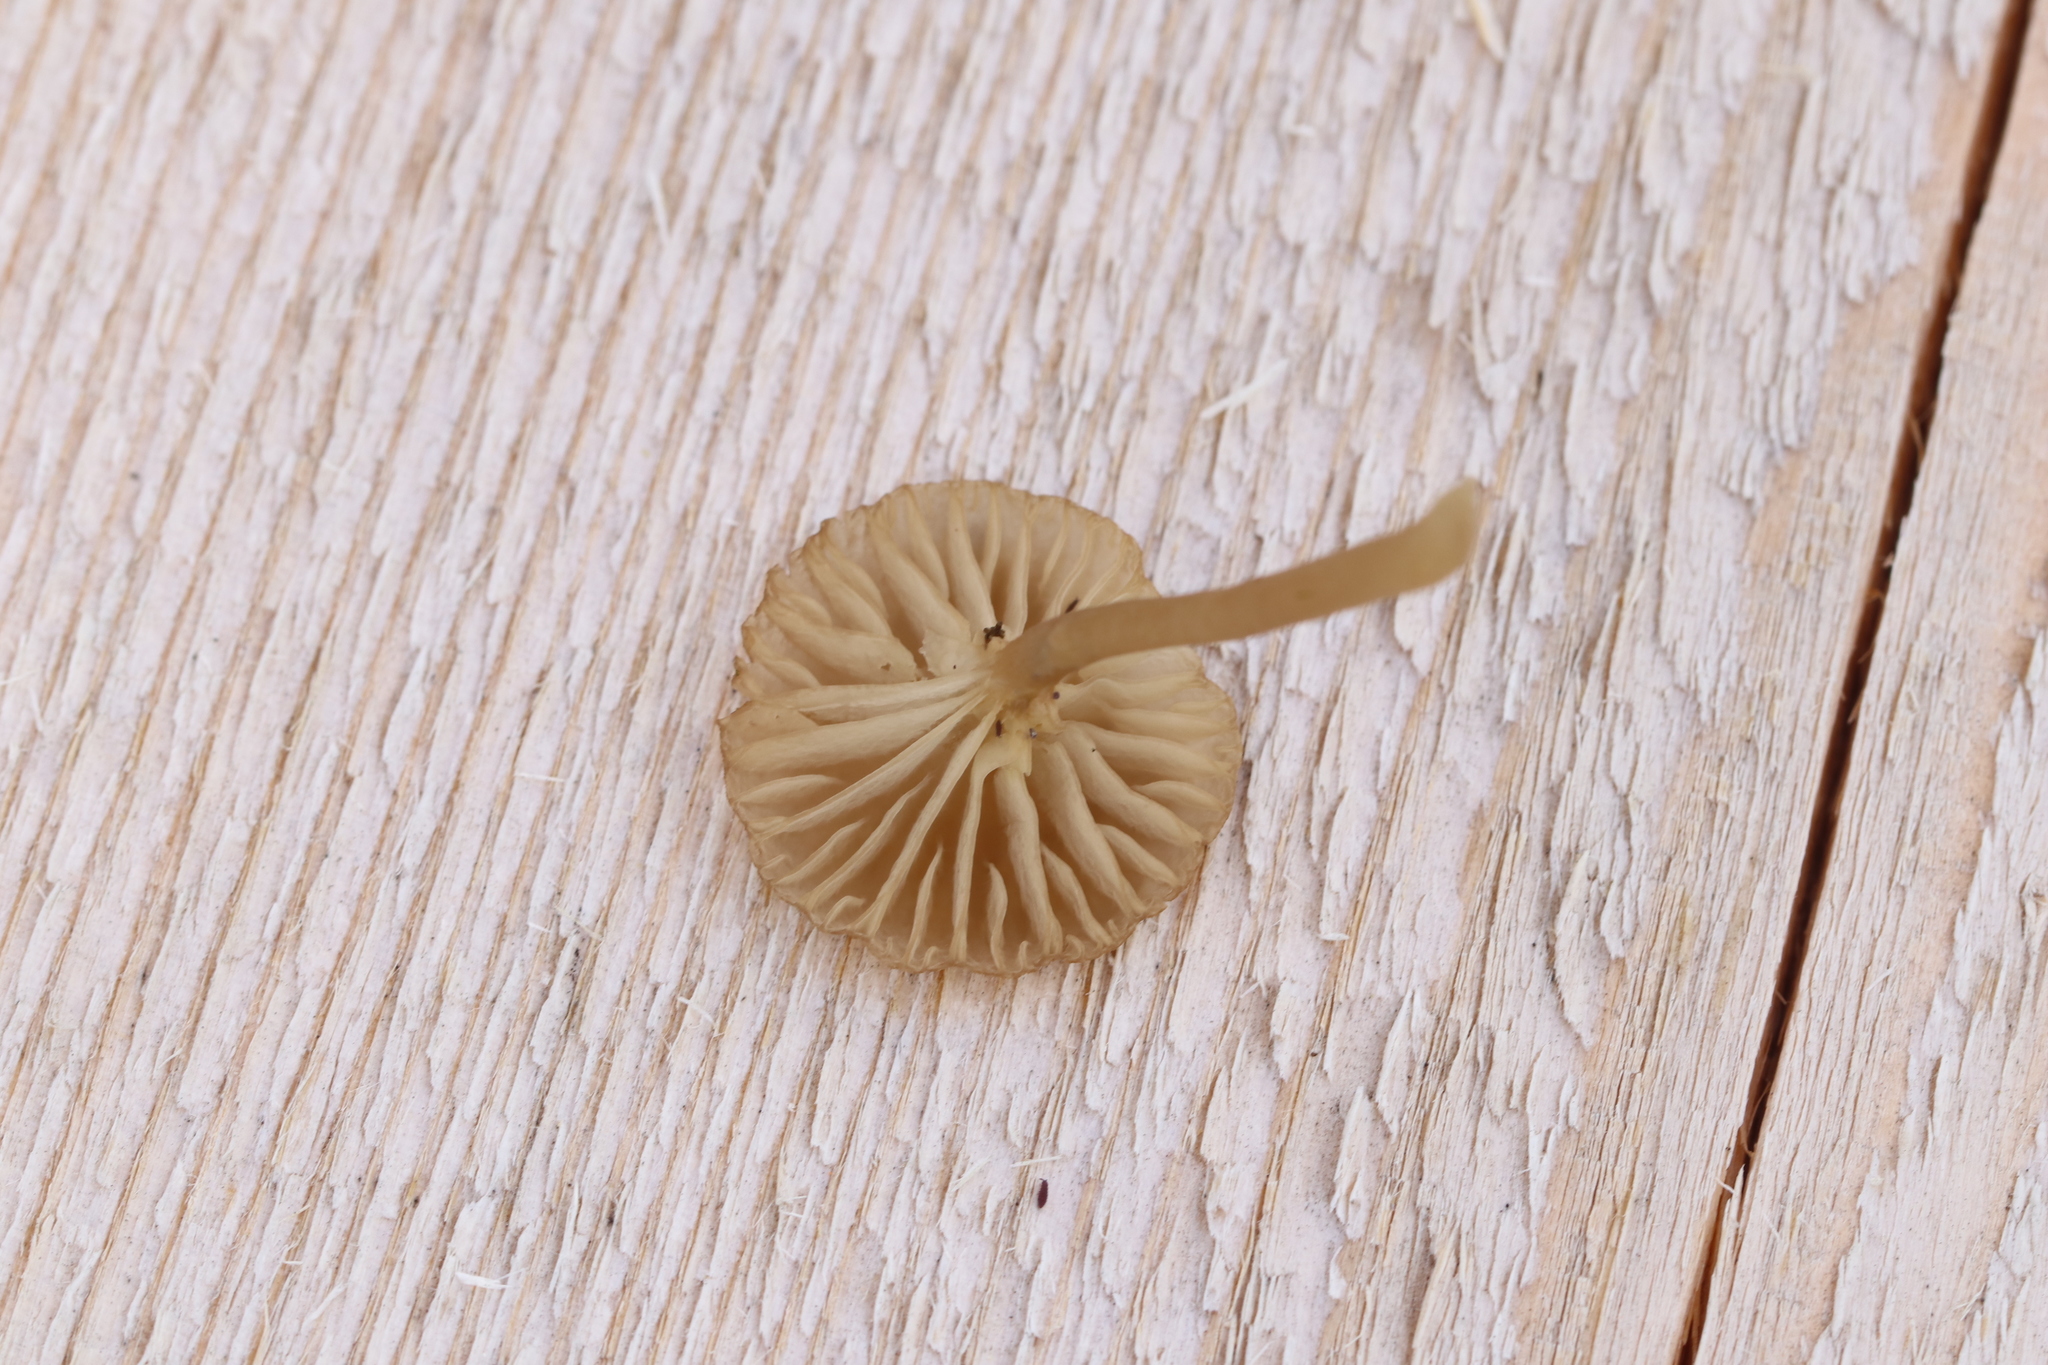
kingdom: Fungi
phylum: Basidiomycota
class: Agaricomycetes
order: Agaricales
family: Hygrophoraceae
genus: Lichenomphalia
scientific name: Lichenomphalia umbellifera
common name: Heath navel
